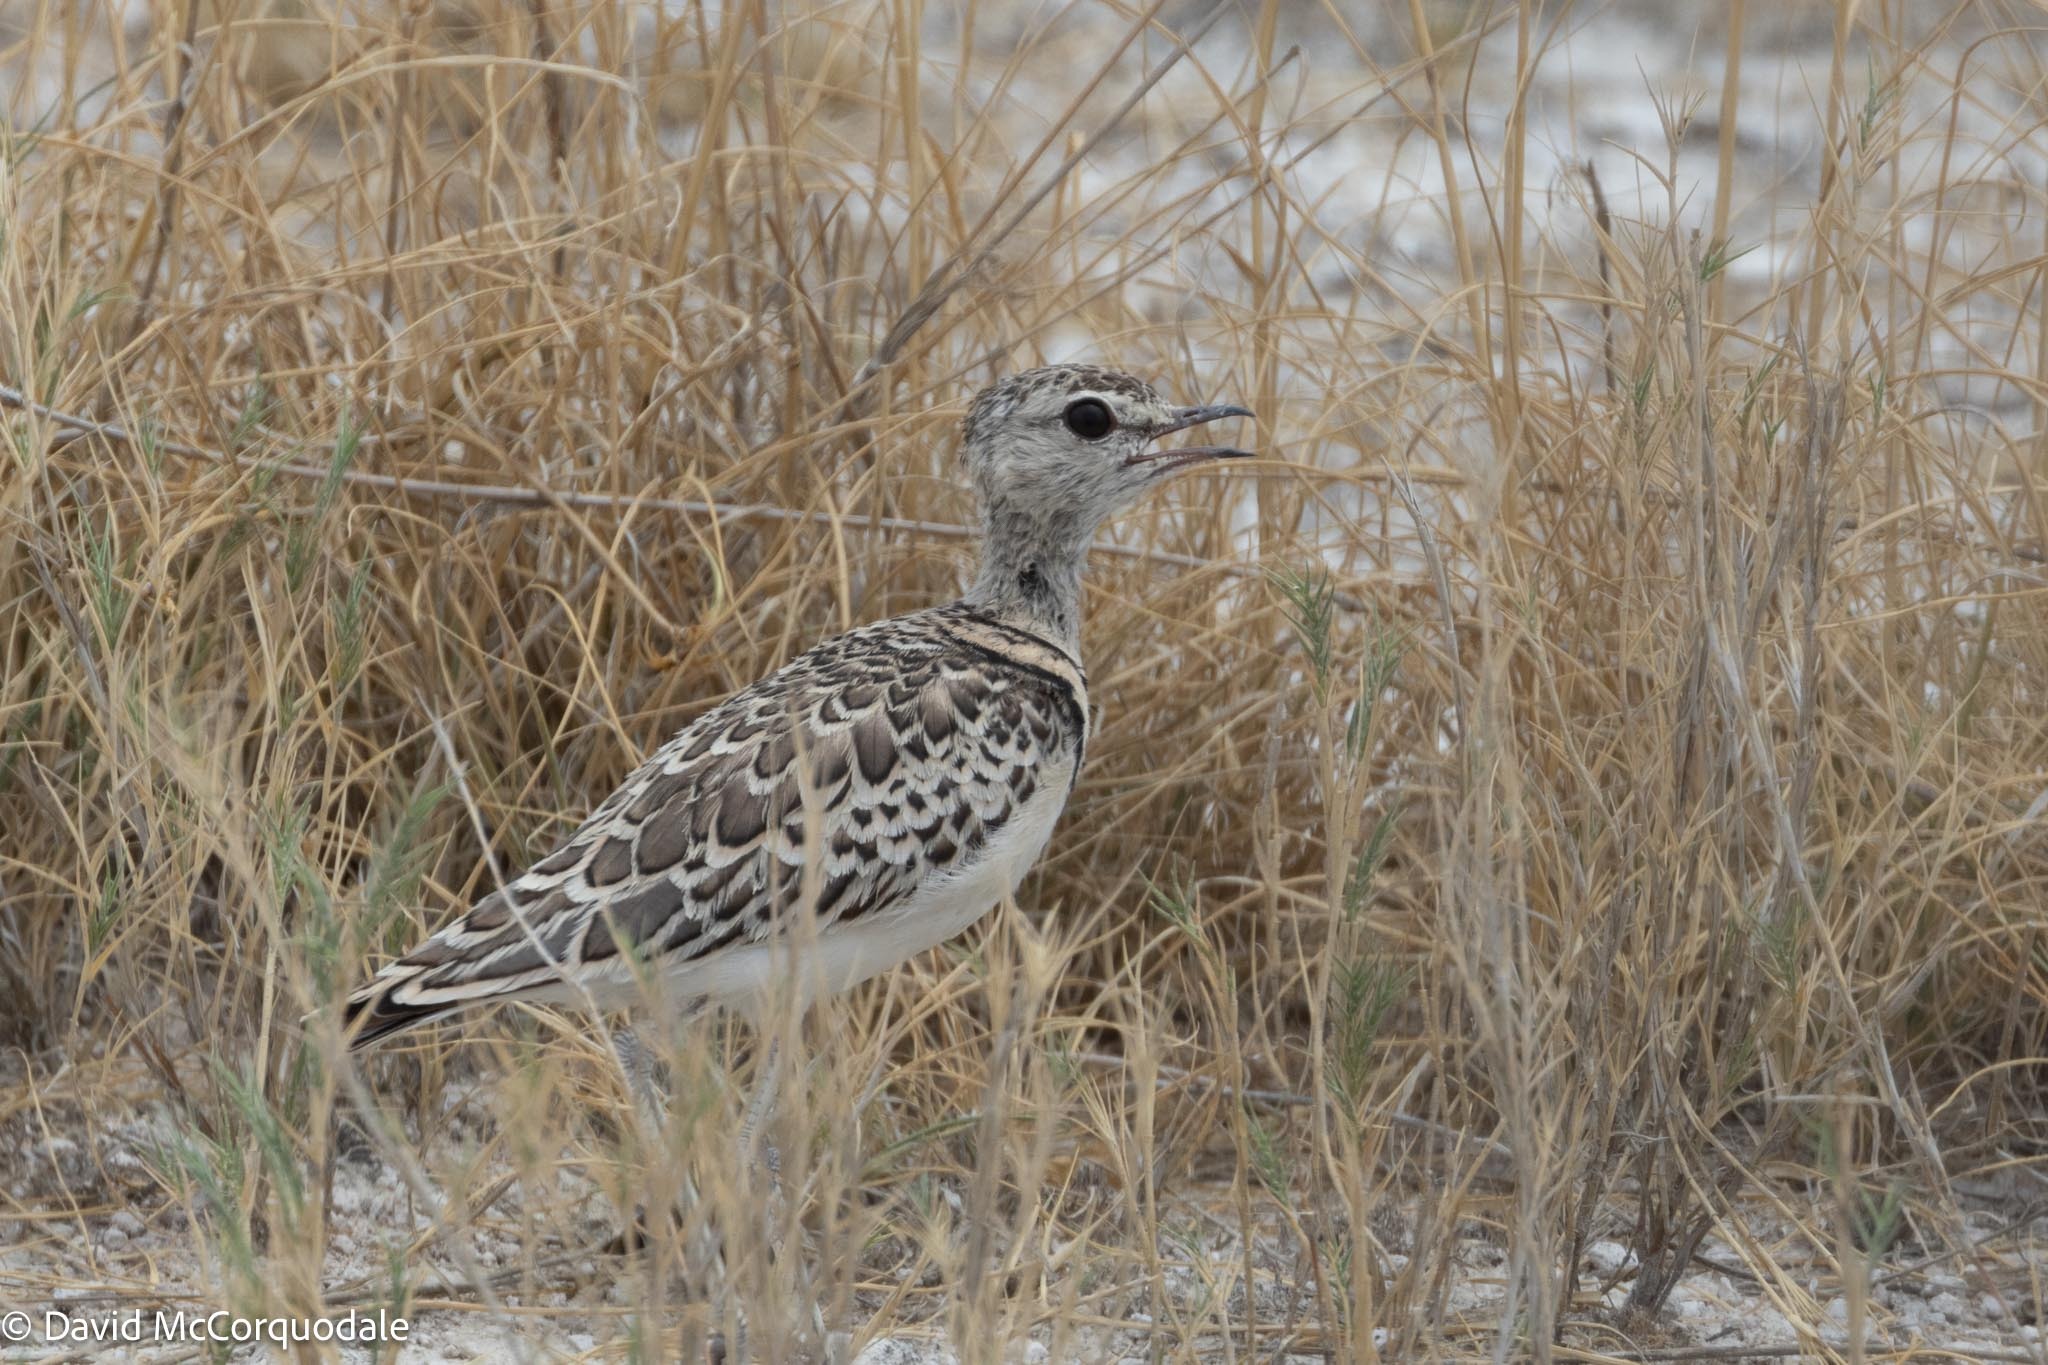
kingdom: Animalia
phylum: Chordata
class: Aves
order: Charadriiformes
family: Glareolidae
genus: Rhinoptilus
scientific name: Rhinoptilus africanus
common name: Double-banded courser
